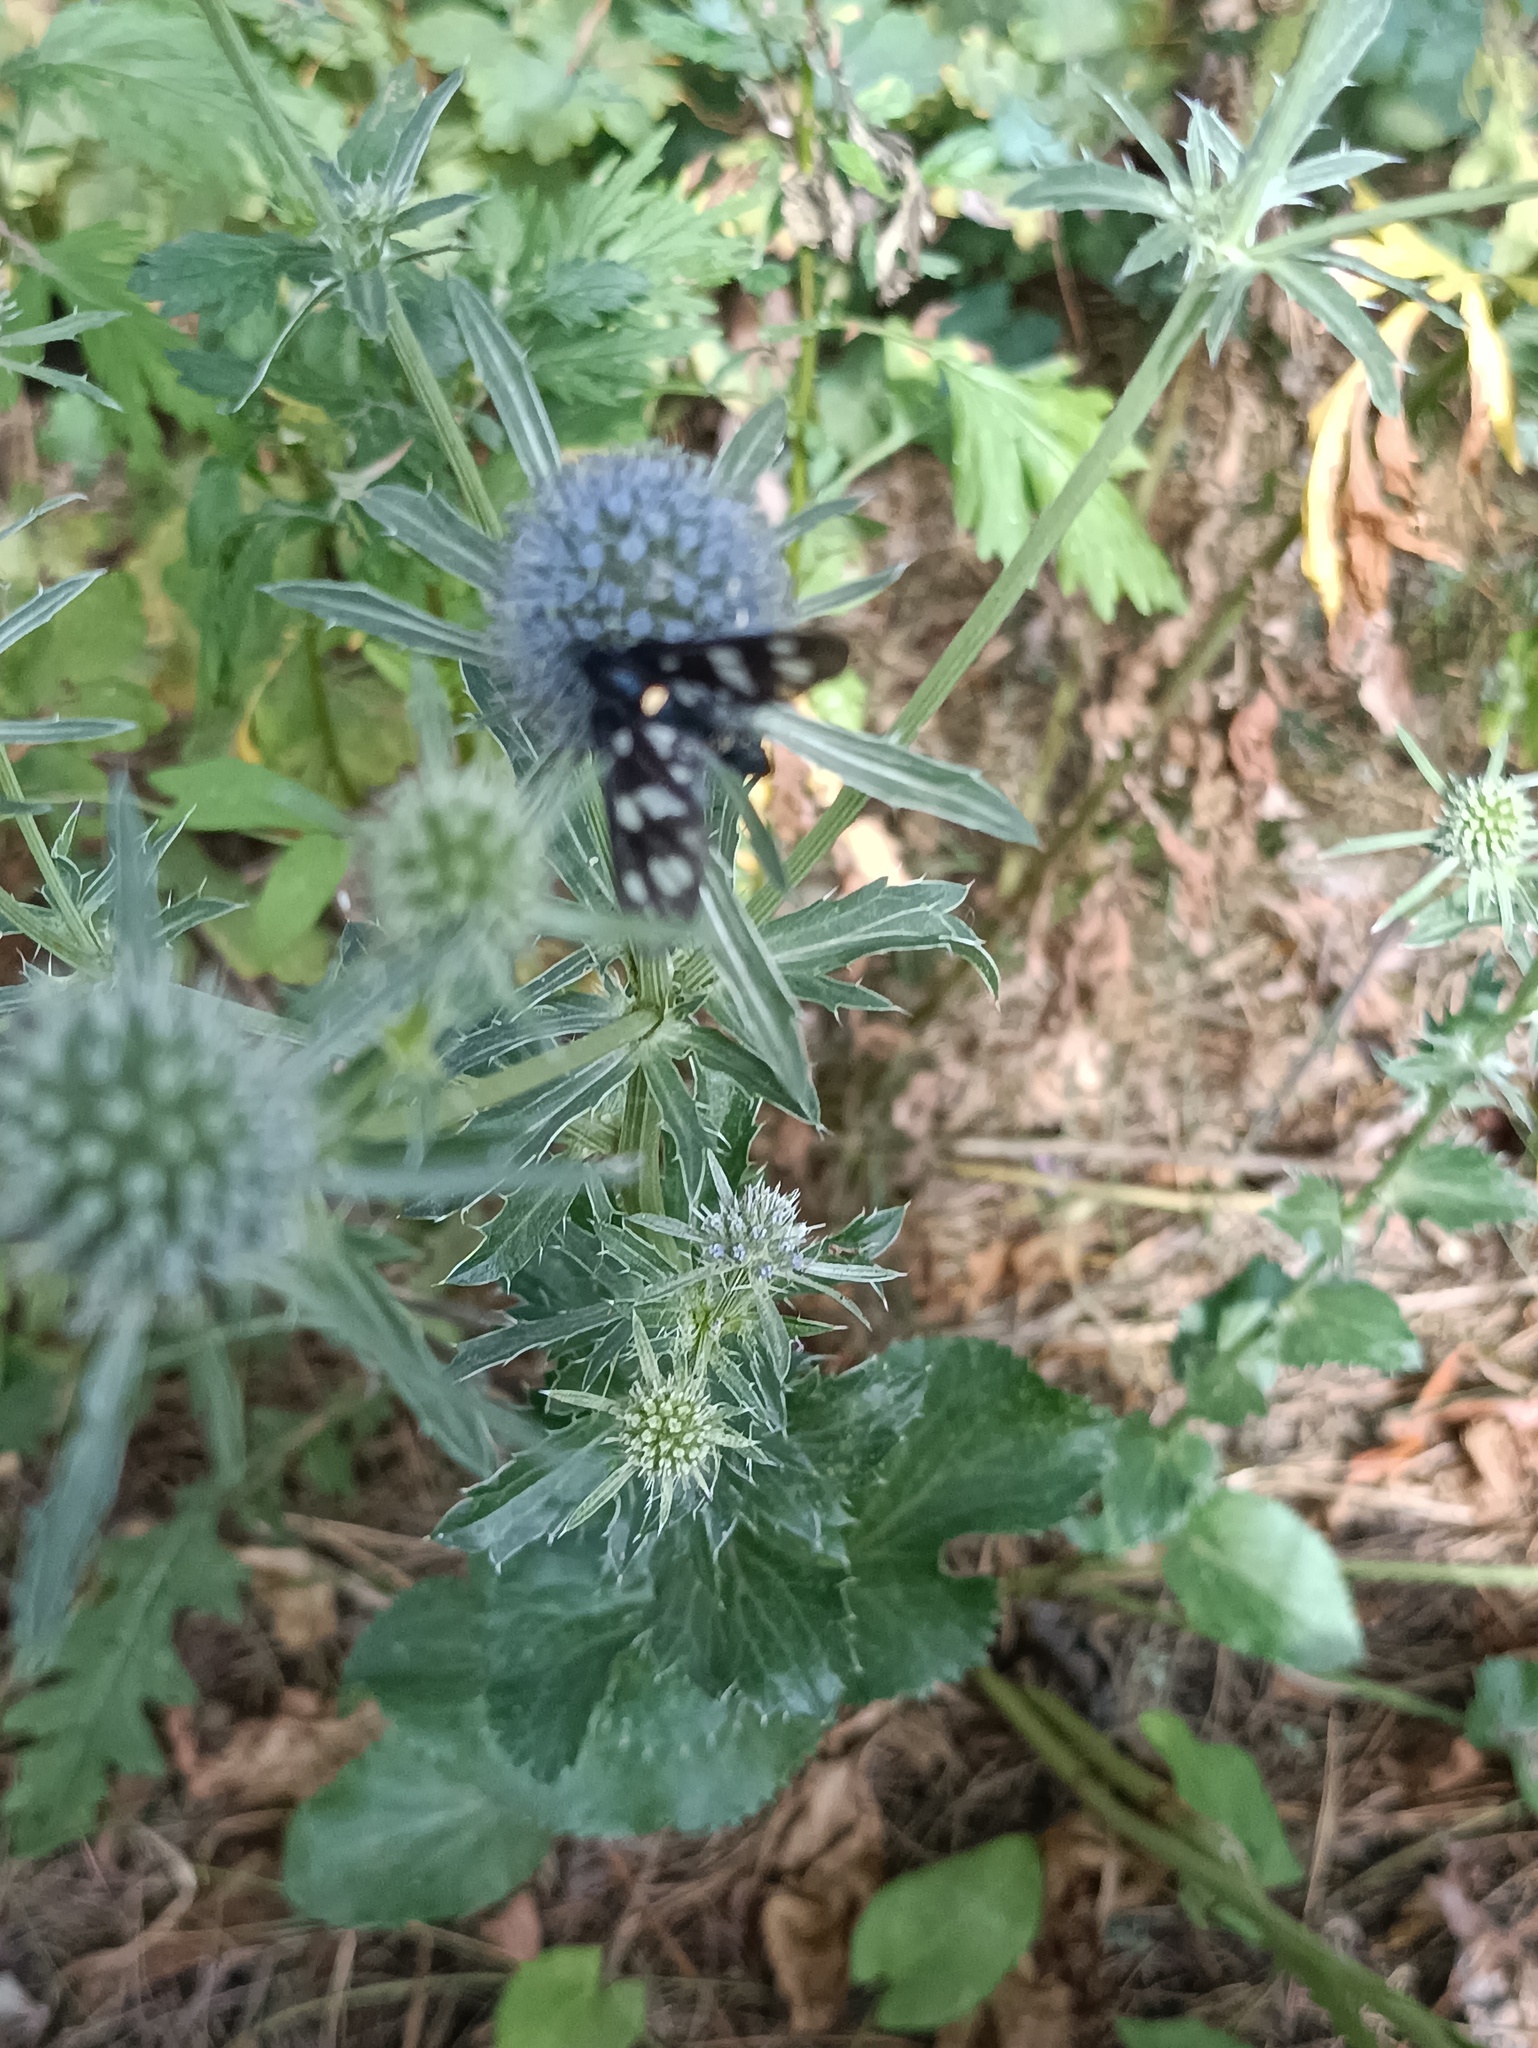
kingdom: Animalia
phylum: Arthropoda
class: Insecta
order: Lepidoptera
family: Erebidae
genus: Amata
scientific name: Amata nigricornis
